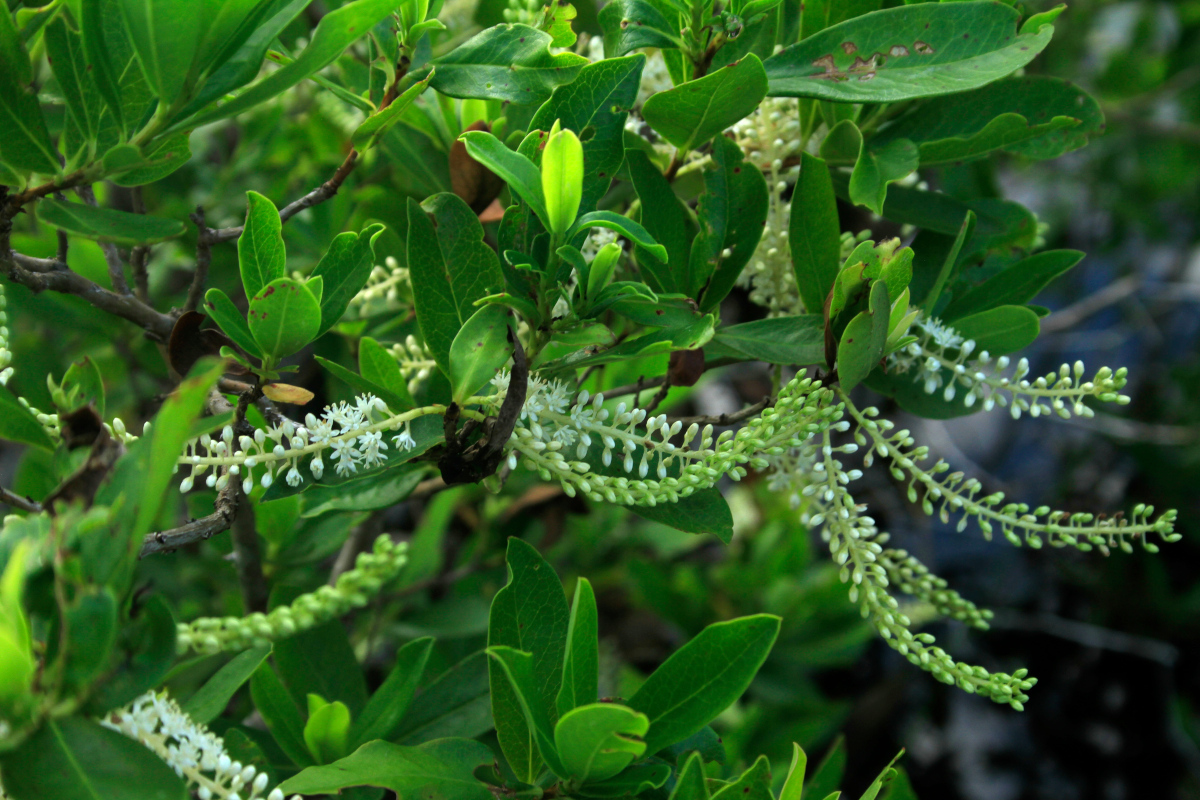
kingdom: Plantae
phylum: Tracheophyta
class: Magnoliopsida
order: Ericales
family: Cyrillaceae
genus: Cyrilla
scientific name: Cyrilla racemiflora
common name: Black titi
